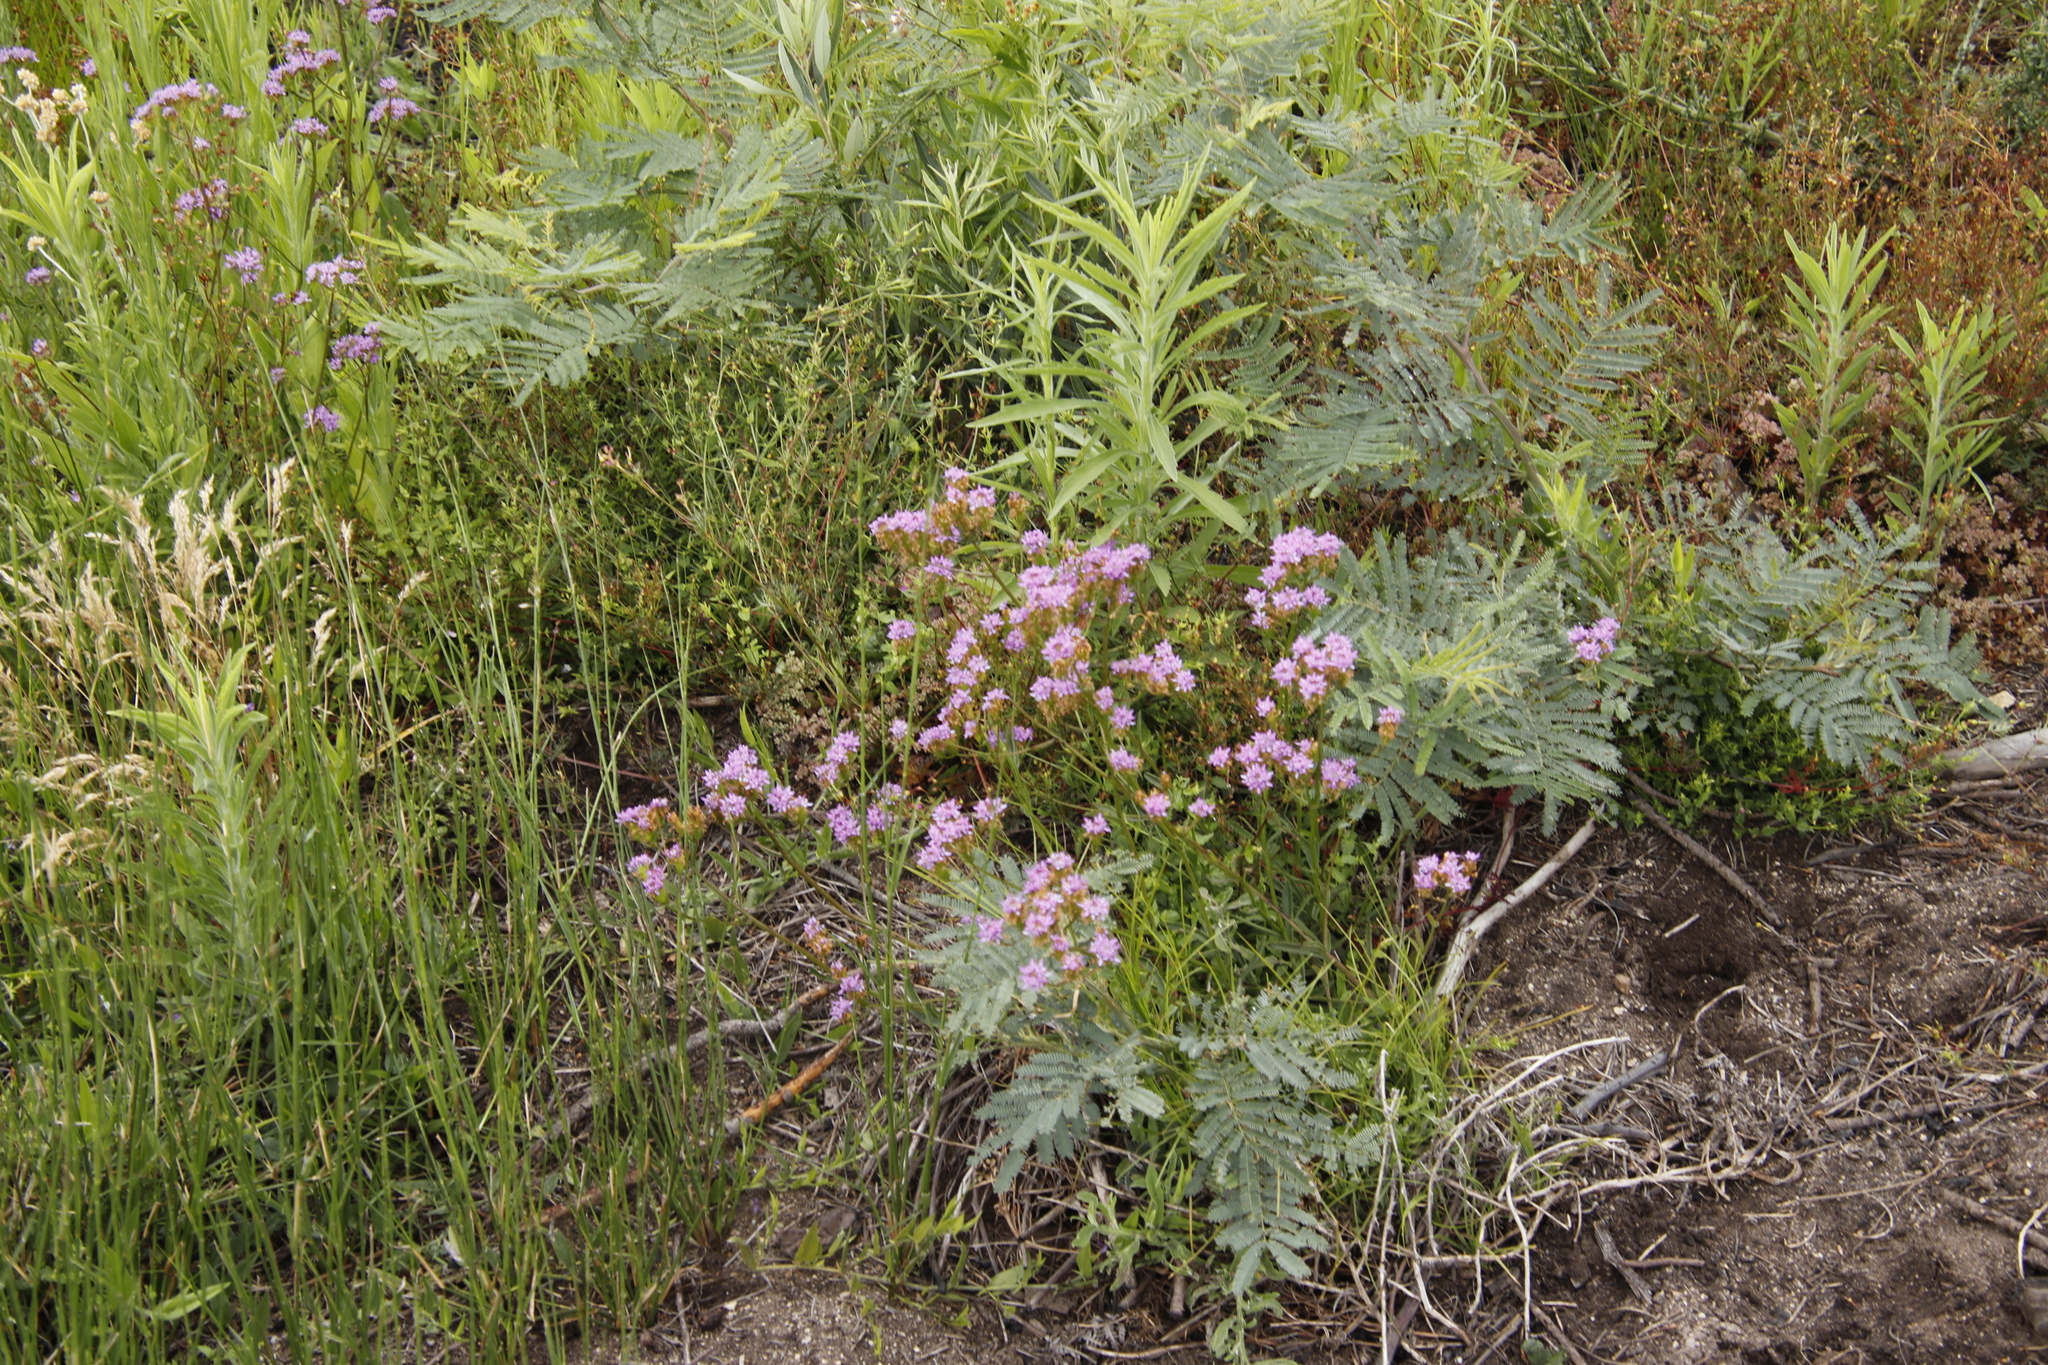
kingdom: Plantae
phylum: Tracheophyta
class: Magnoliopsida
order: Lamiales
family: Scrophulariaceae
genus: Pseudoselago
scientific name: Pseudoselago verbenacea
